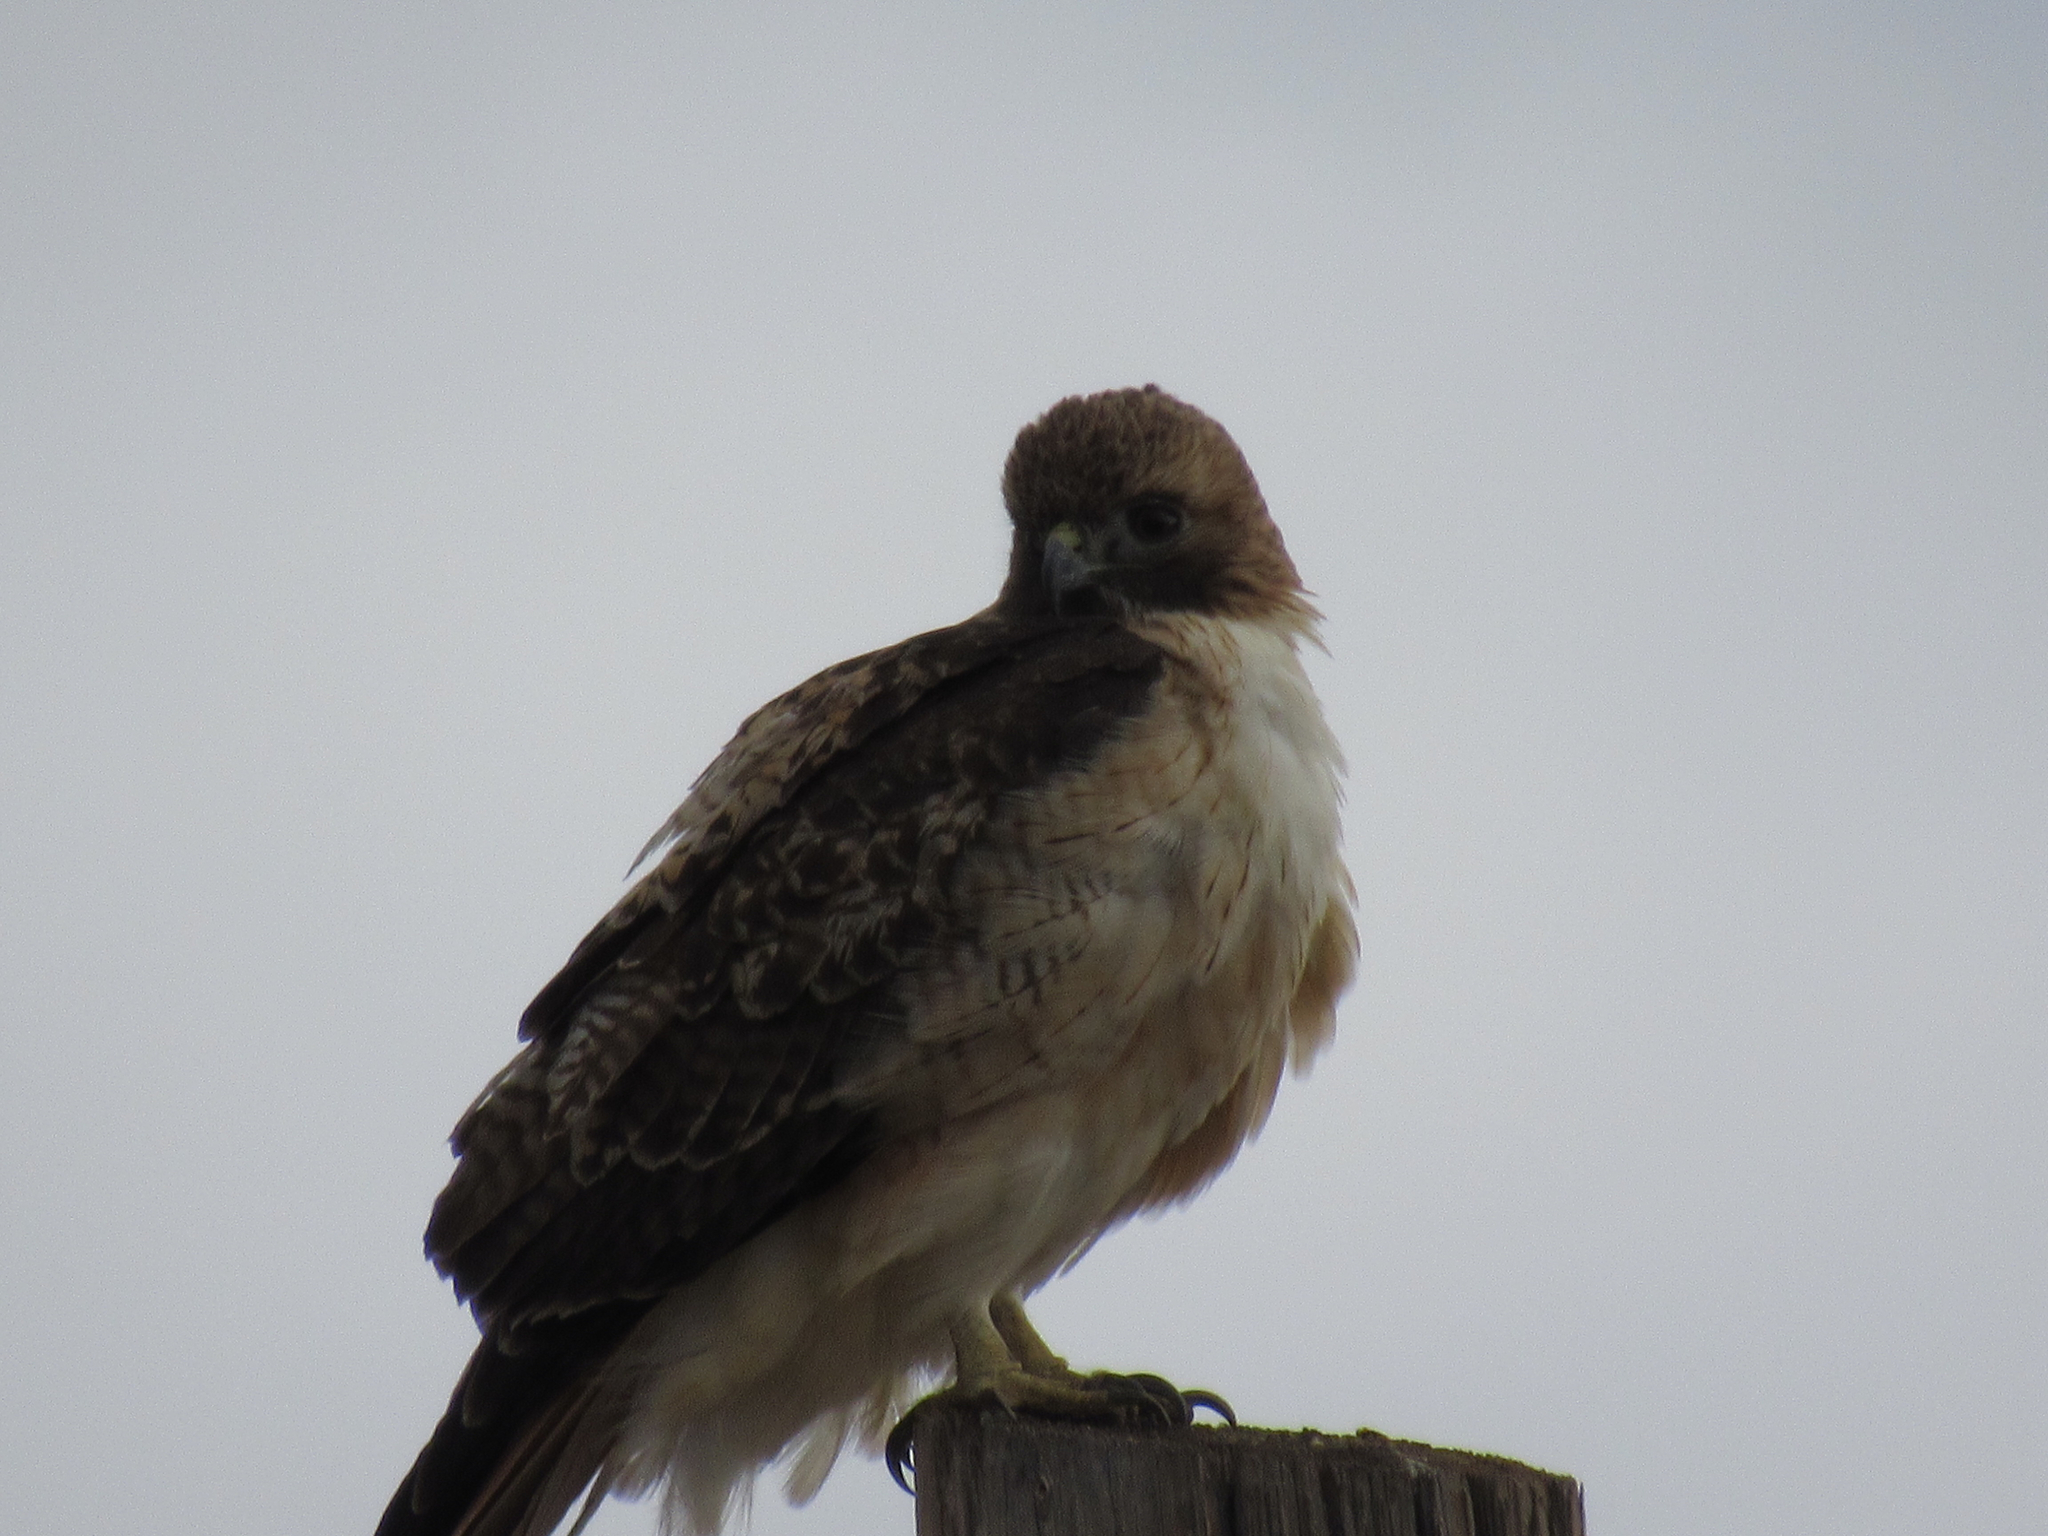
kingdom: Animalia
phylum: Chordata
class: Aves
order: Accipitriformes
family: Accipitridae
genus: Buteo
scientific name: Buteo jamaicensis
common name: Red-tailed hawk
